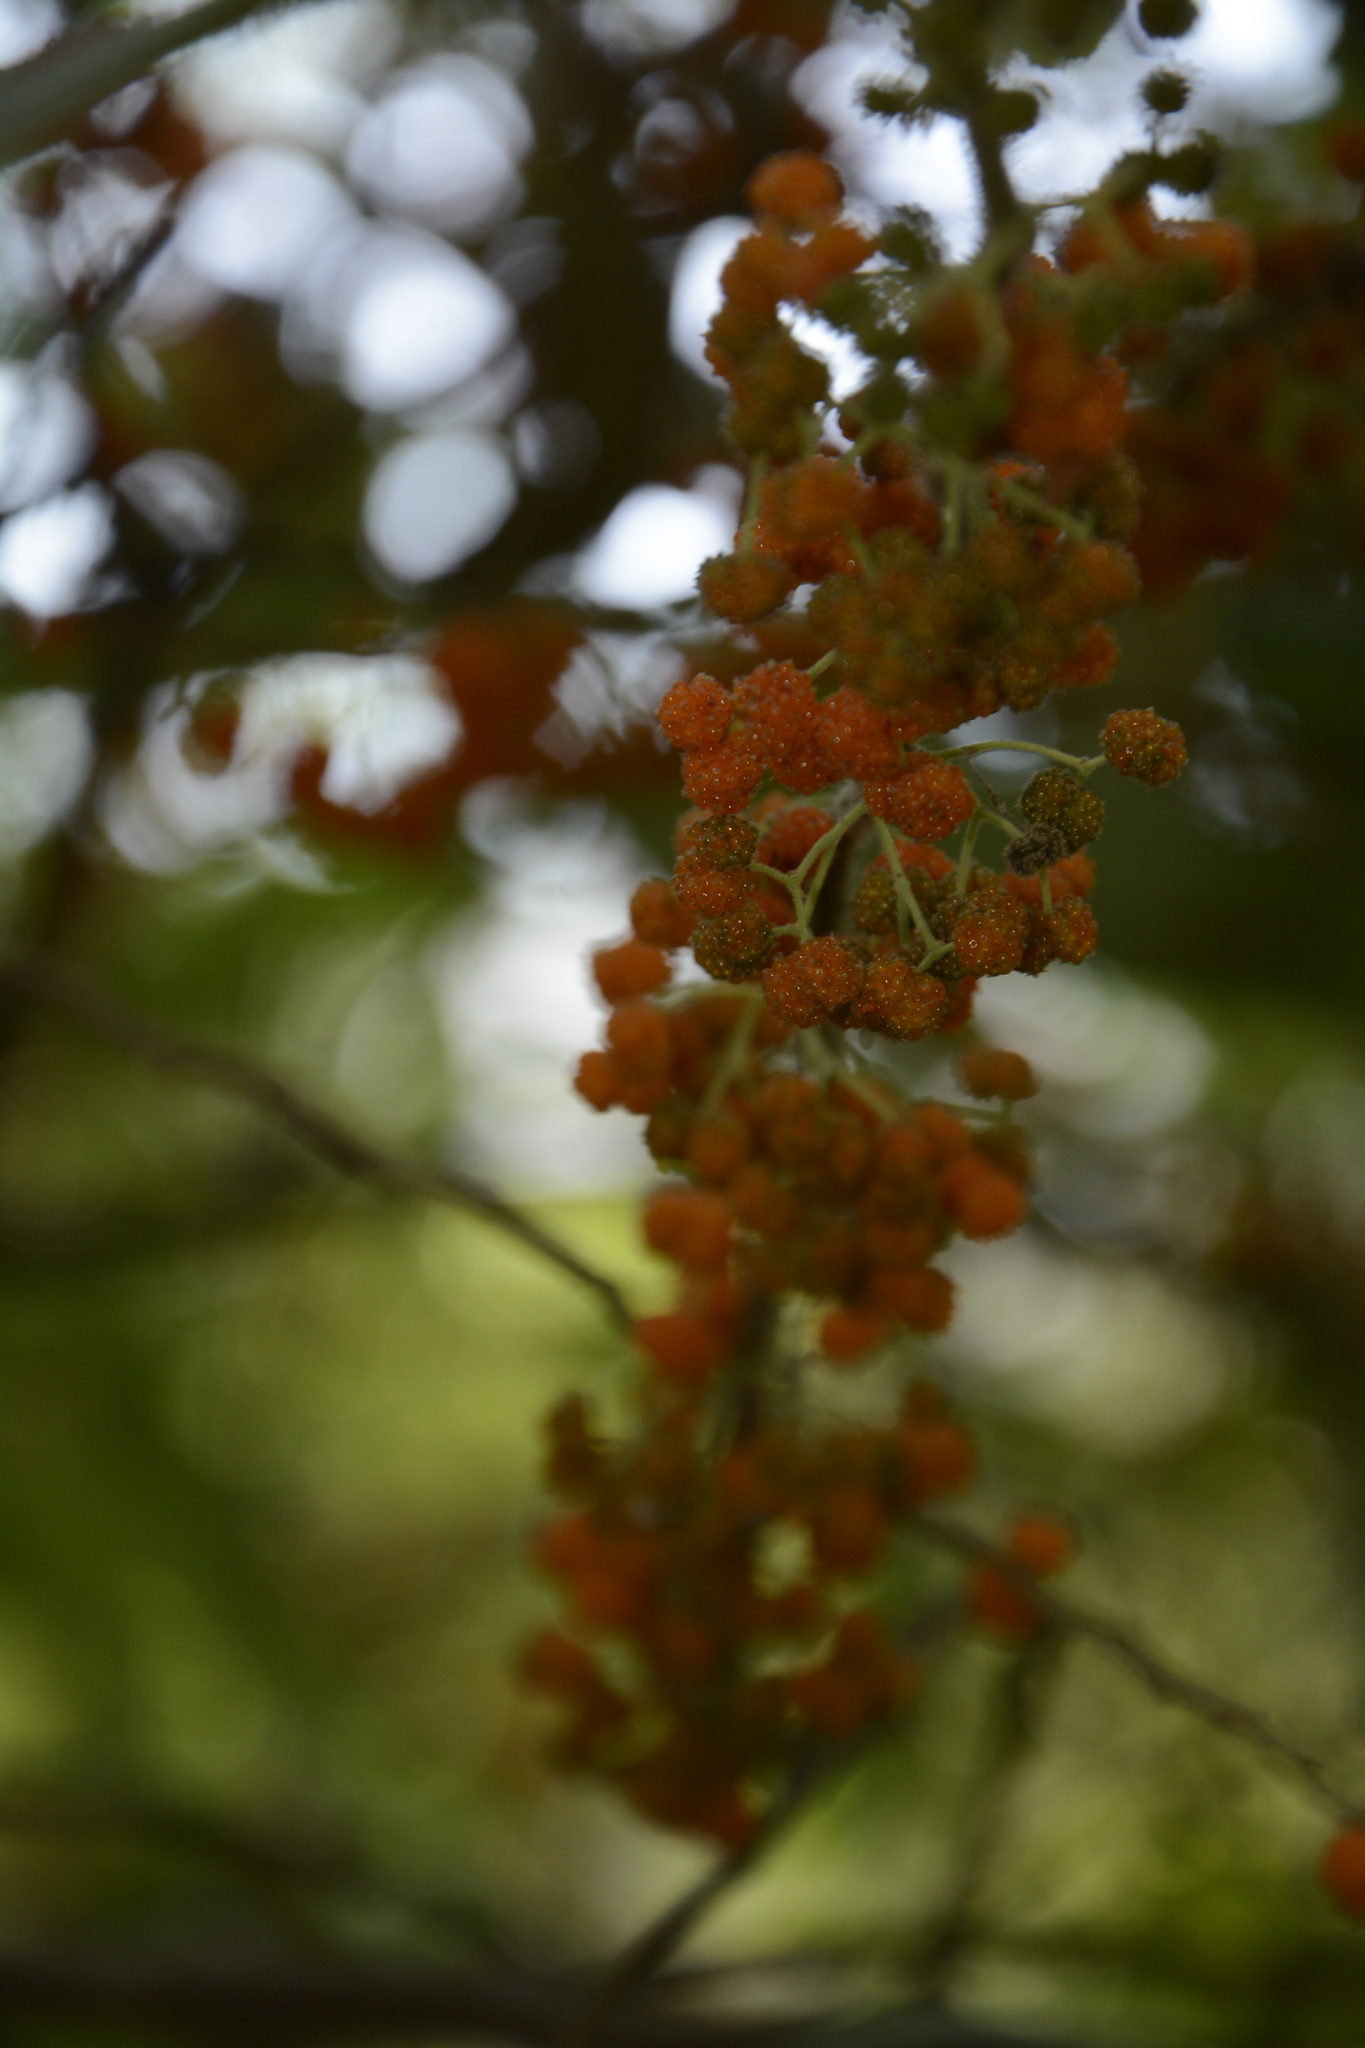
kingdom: Plantae
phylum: Tracheophyta
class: Magnoliopsida
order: Rosales
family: Urticaceae
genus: Debregeasia
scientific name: Debregeasia longifolia
